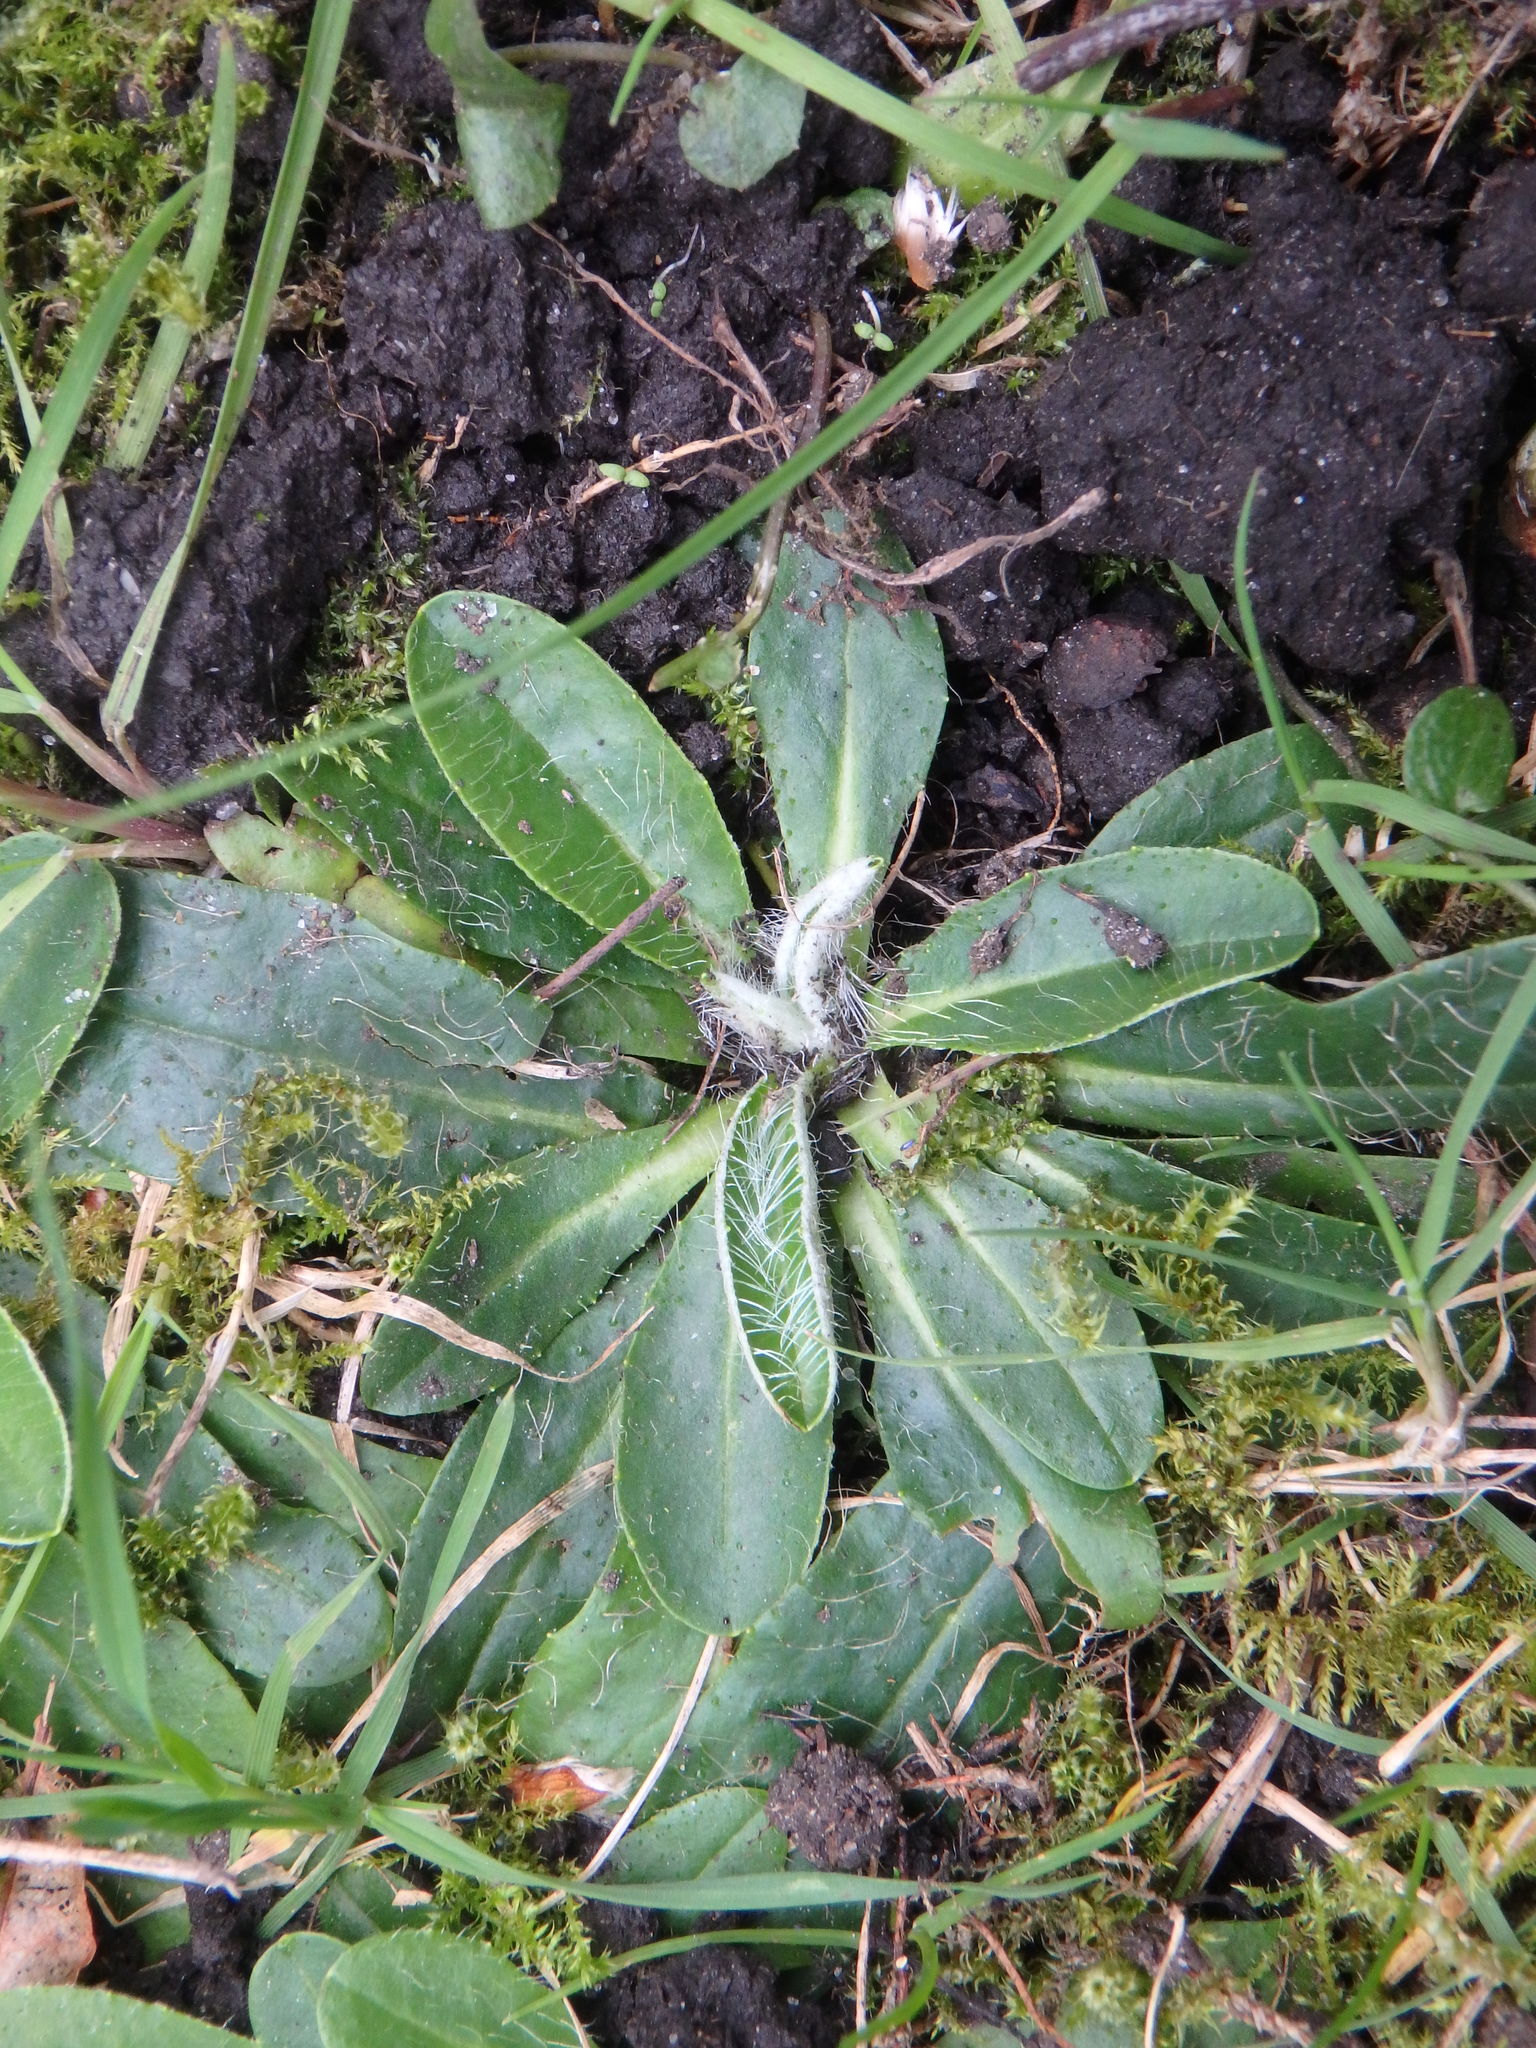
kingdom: Plantae
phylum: Tracheophyta
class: Magnoliopsida
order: Asterales
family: Asteraceae
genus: Pilosella
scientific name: Pilosella officinarum
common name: Mouse-ear hawkweed
